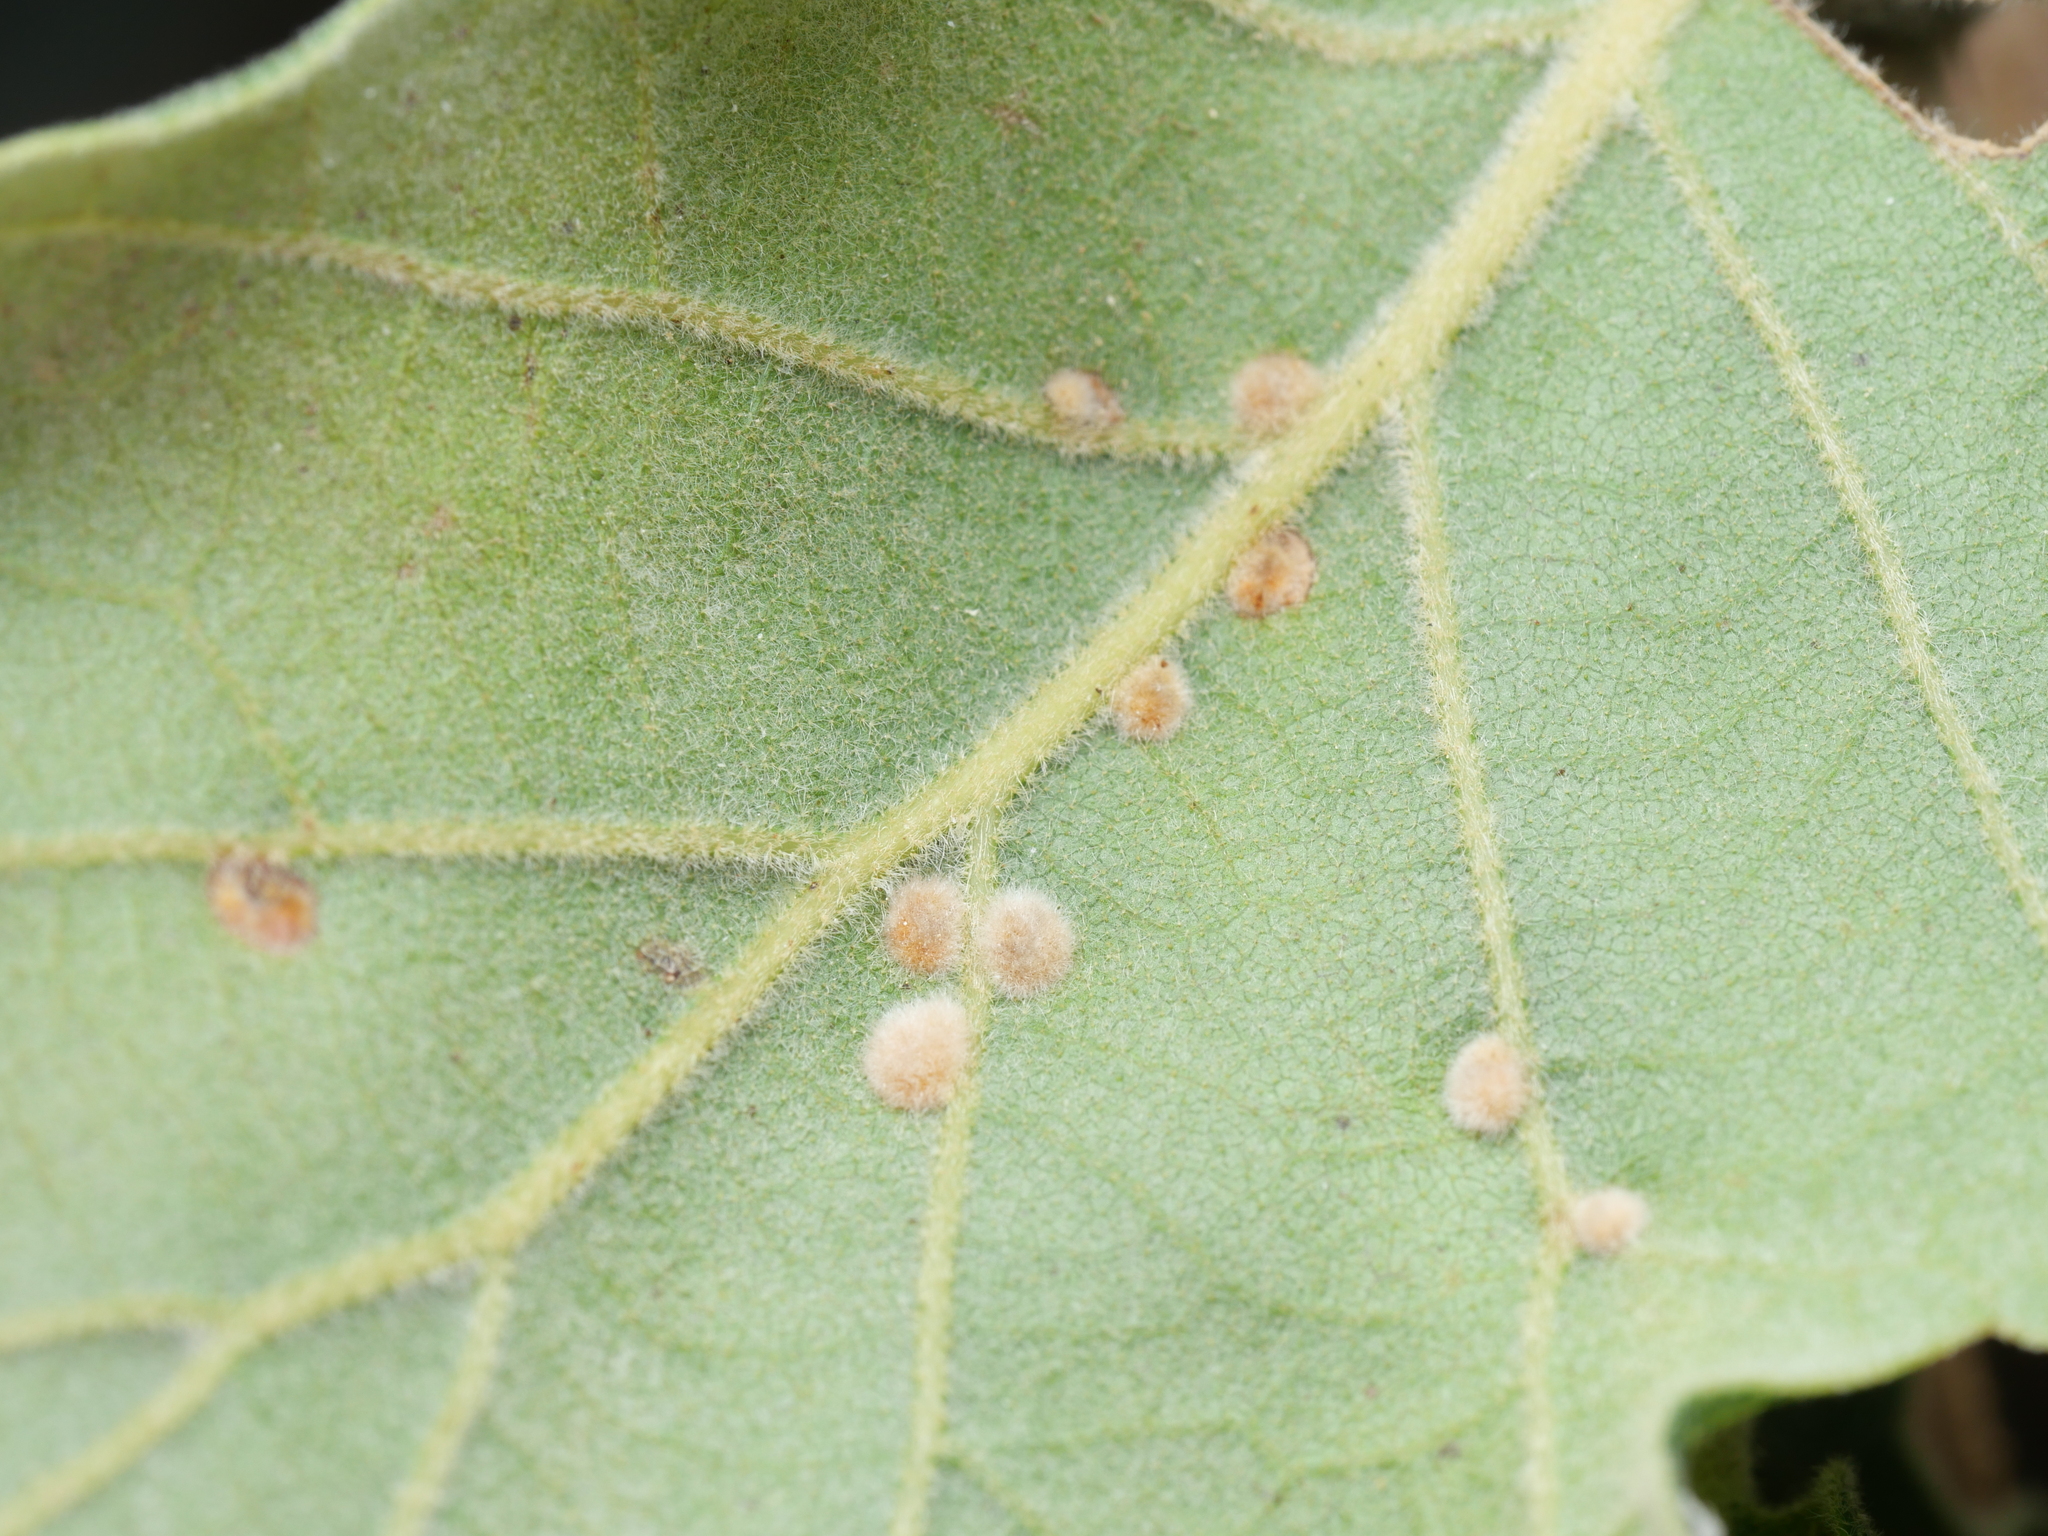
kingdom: Animalia
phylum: Arthropoda
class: Insecta
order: Diptera
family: Cecidomyiidae
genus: Dryomyia
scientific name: Dryomyia circinans
